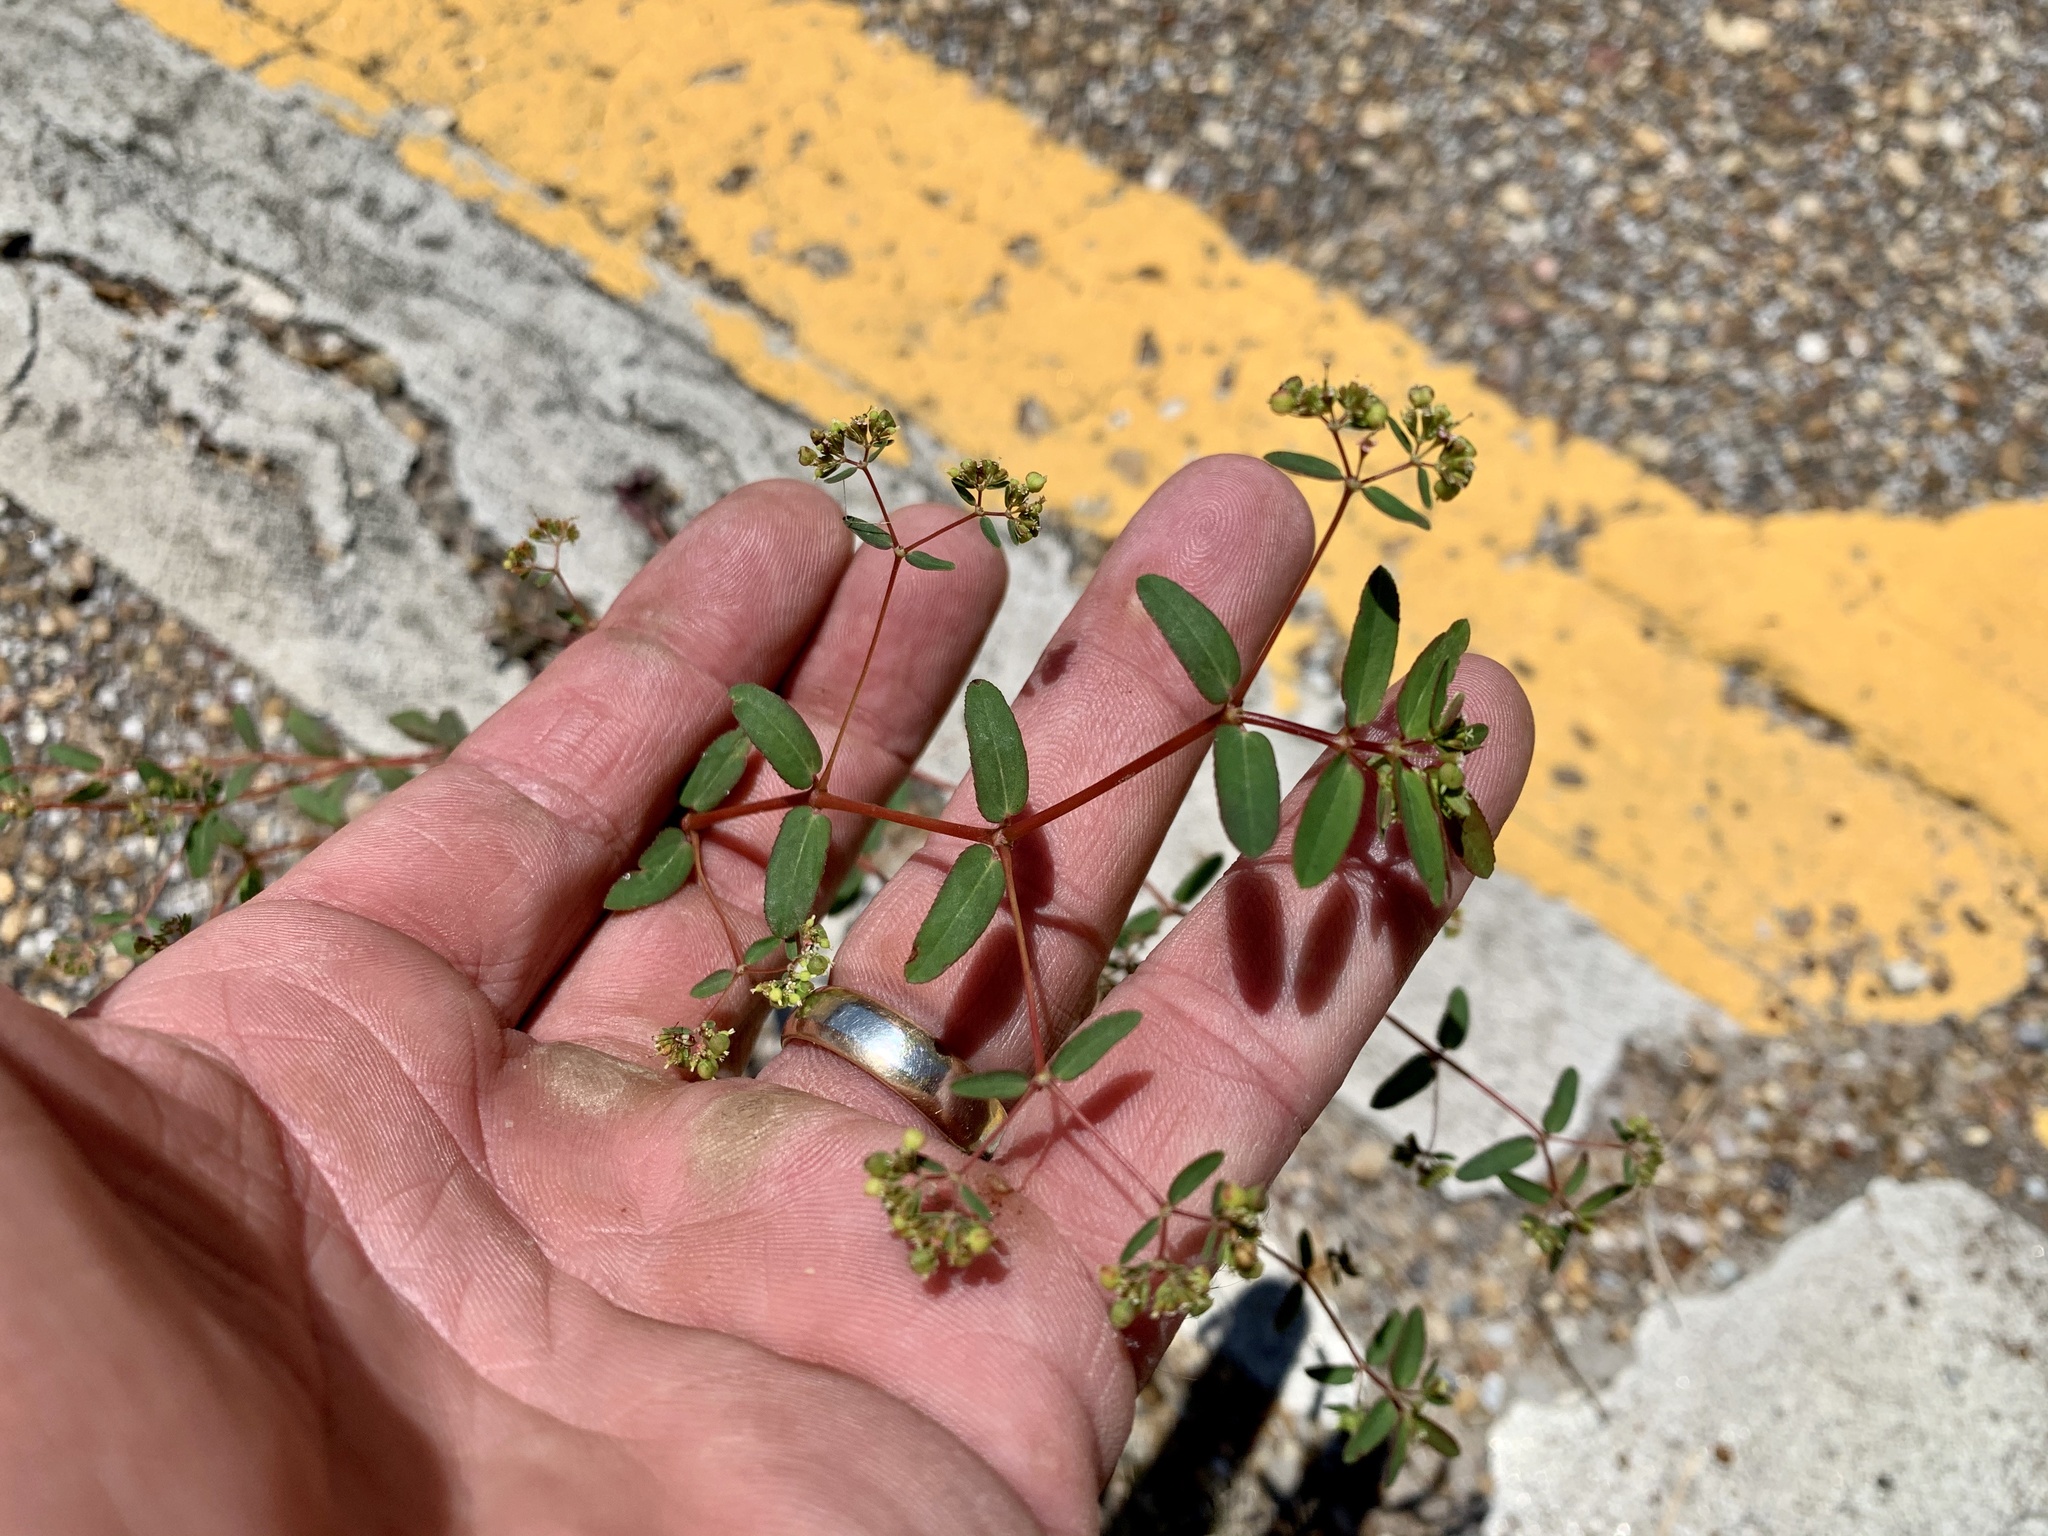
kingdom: Plantae
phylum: Tracheophyta
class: Magnoliopsida
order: Malpighiales
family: Euphorbiaceae
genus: Euphorbia
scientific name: Euphorbia hyssopifolia
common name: Hyssopleaf sandmat
